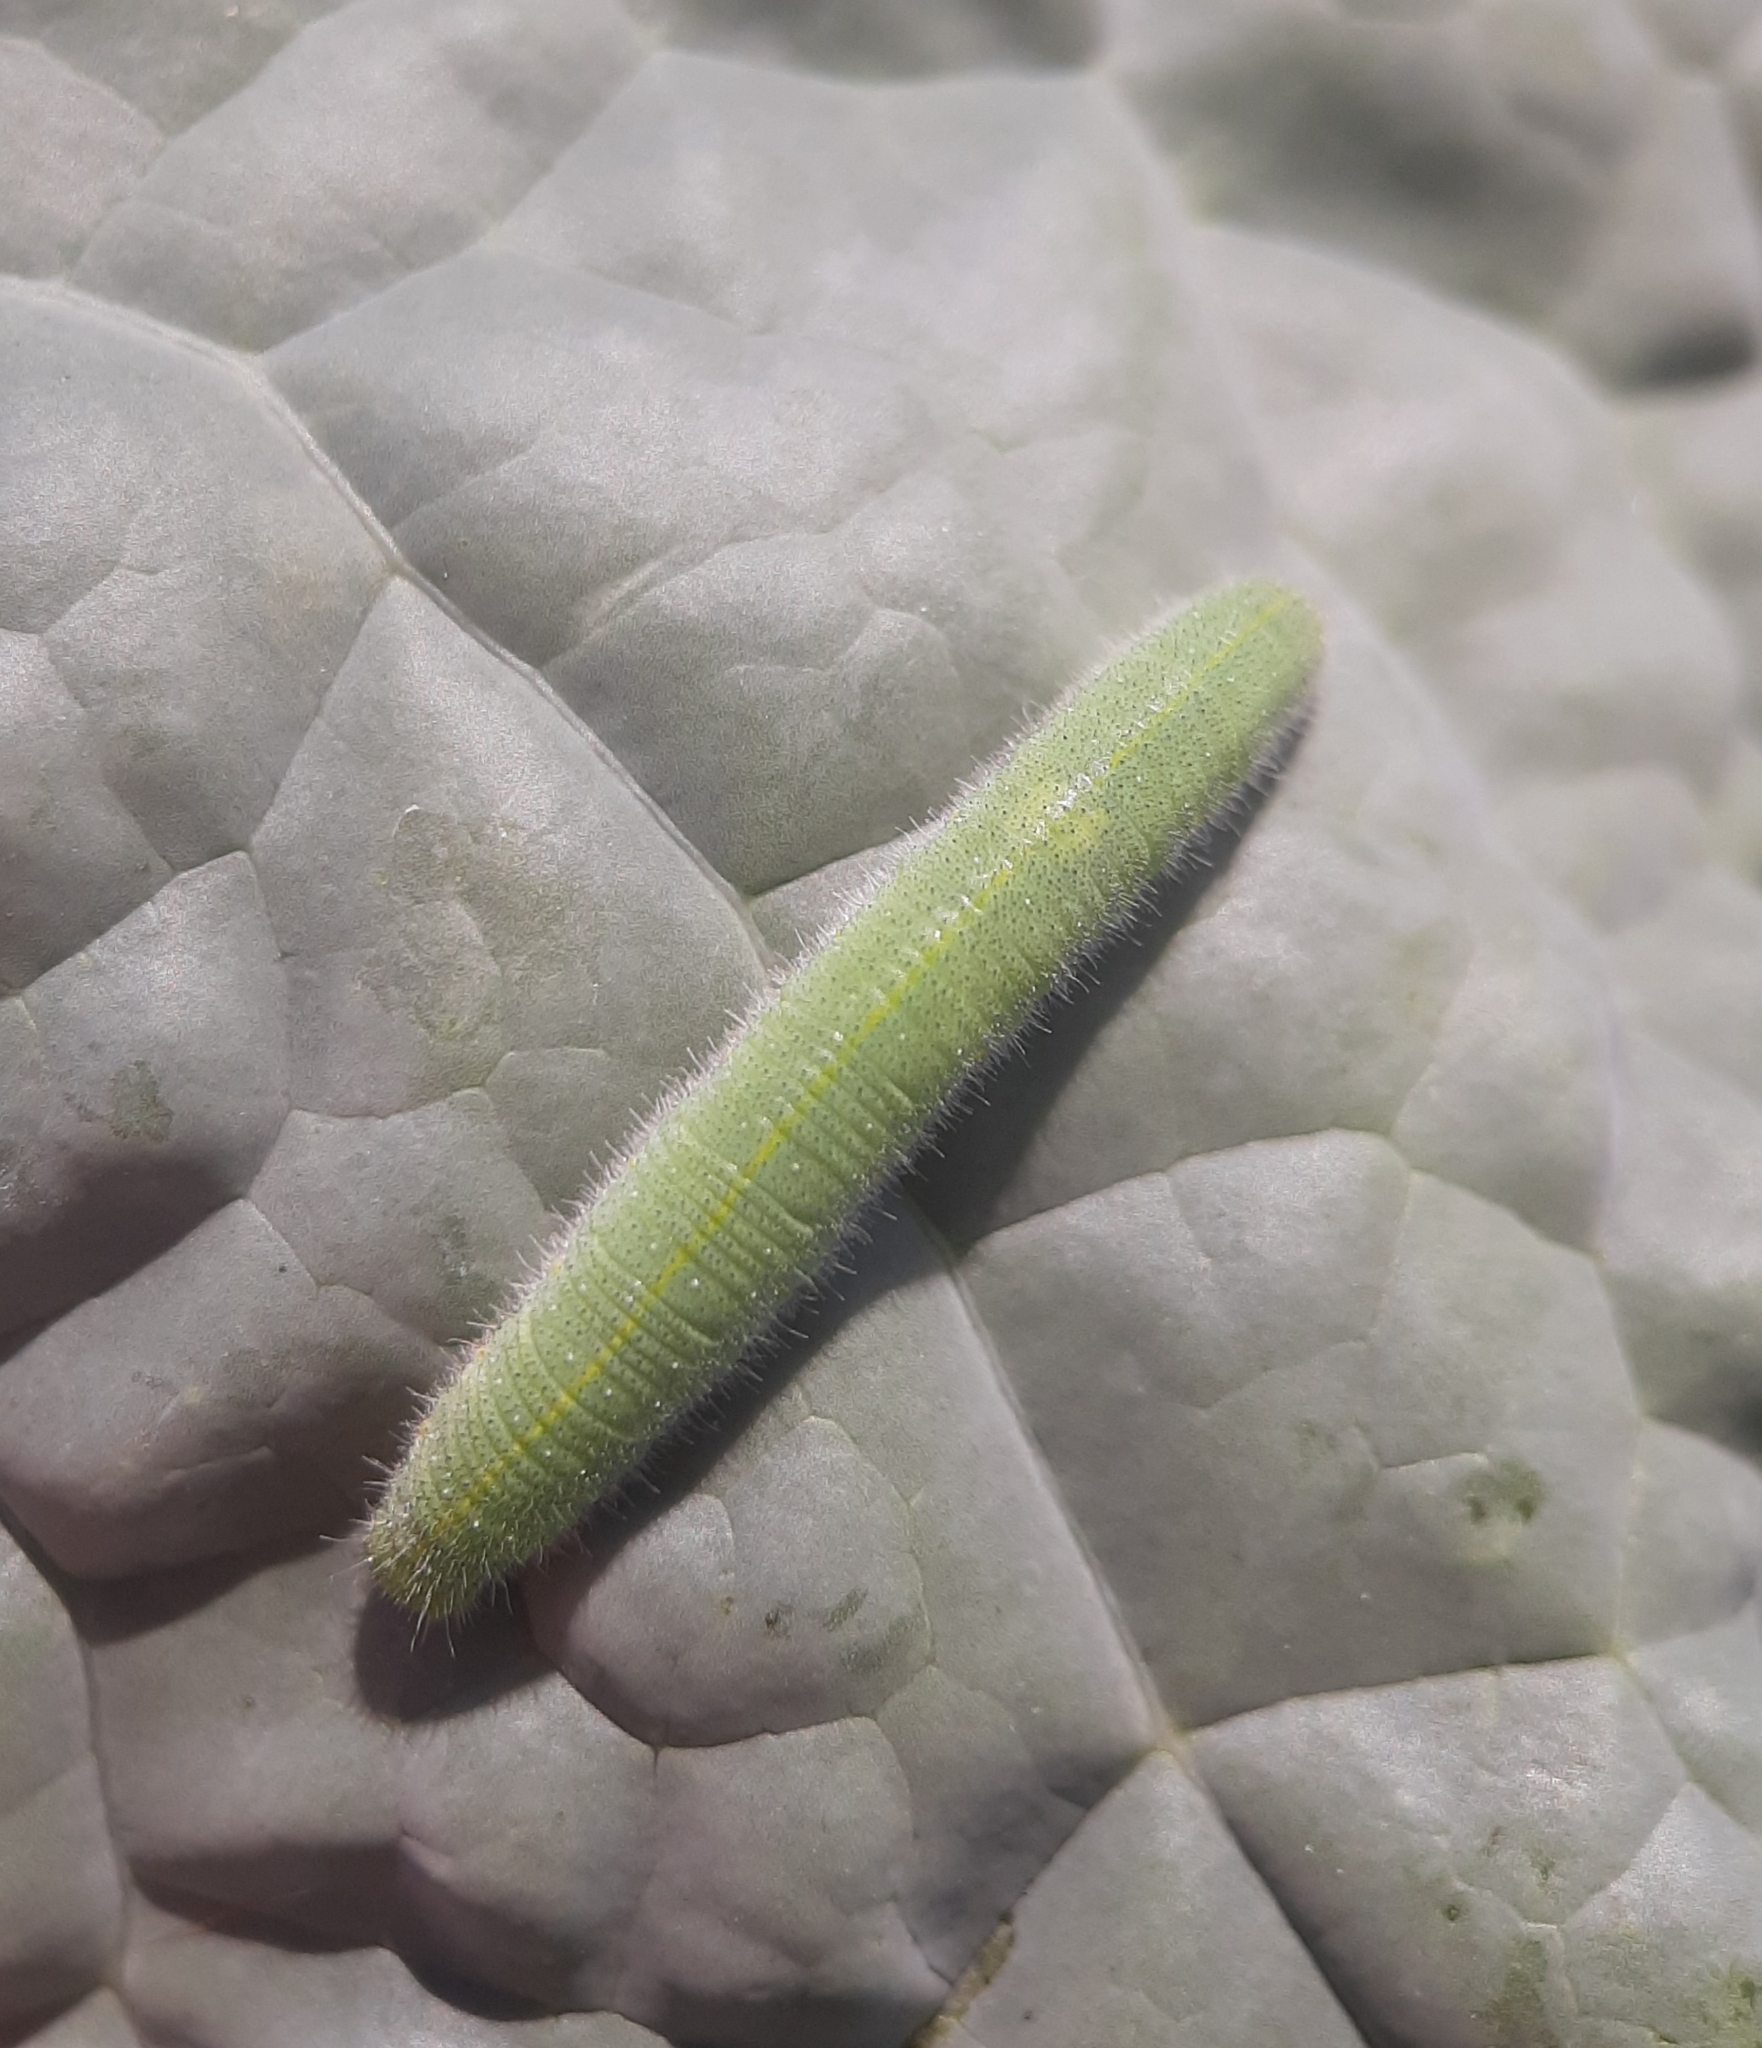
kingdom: Animalia
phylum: Arthropoda
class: Insecta
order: Lepidoptera
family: Pieridae
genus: Pieris
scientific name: Pieris rapae
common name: Small white
